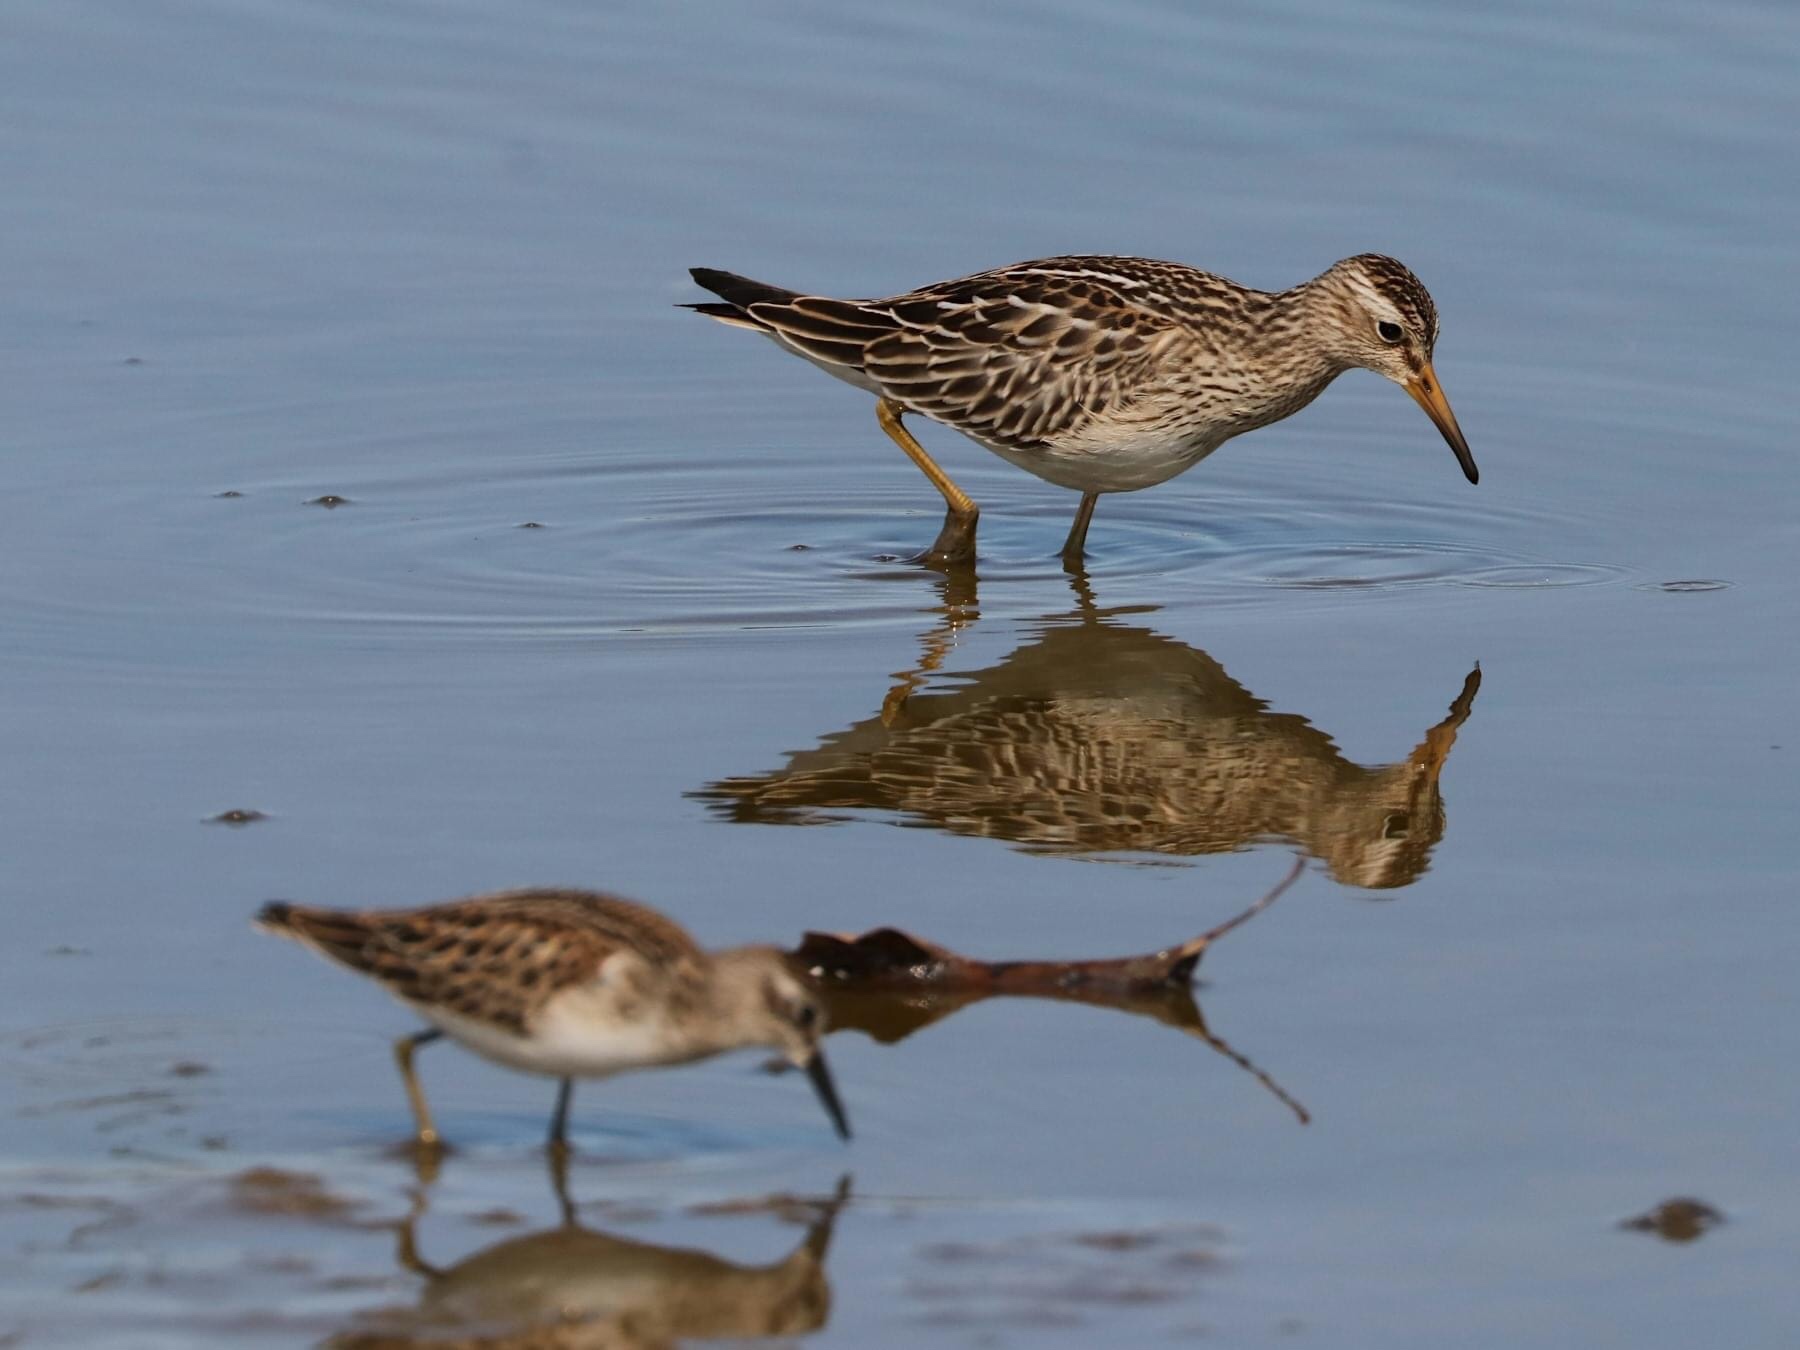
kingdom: Animalia
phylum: Chordata
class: Aves
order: Charadriiformes
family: Scolopacidae
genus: Calidris
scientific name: Calidris melanotos
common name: Pectoral sandpiper
